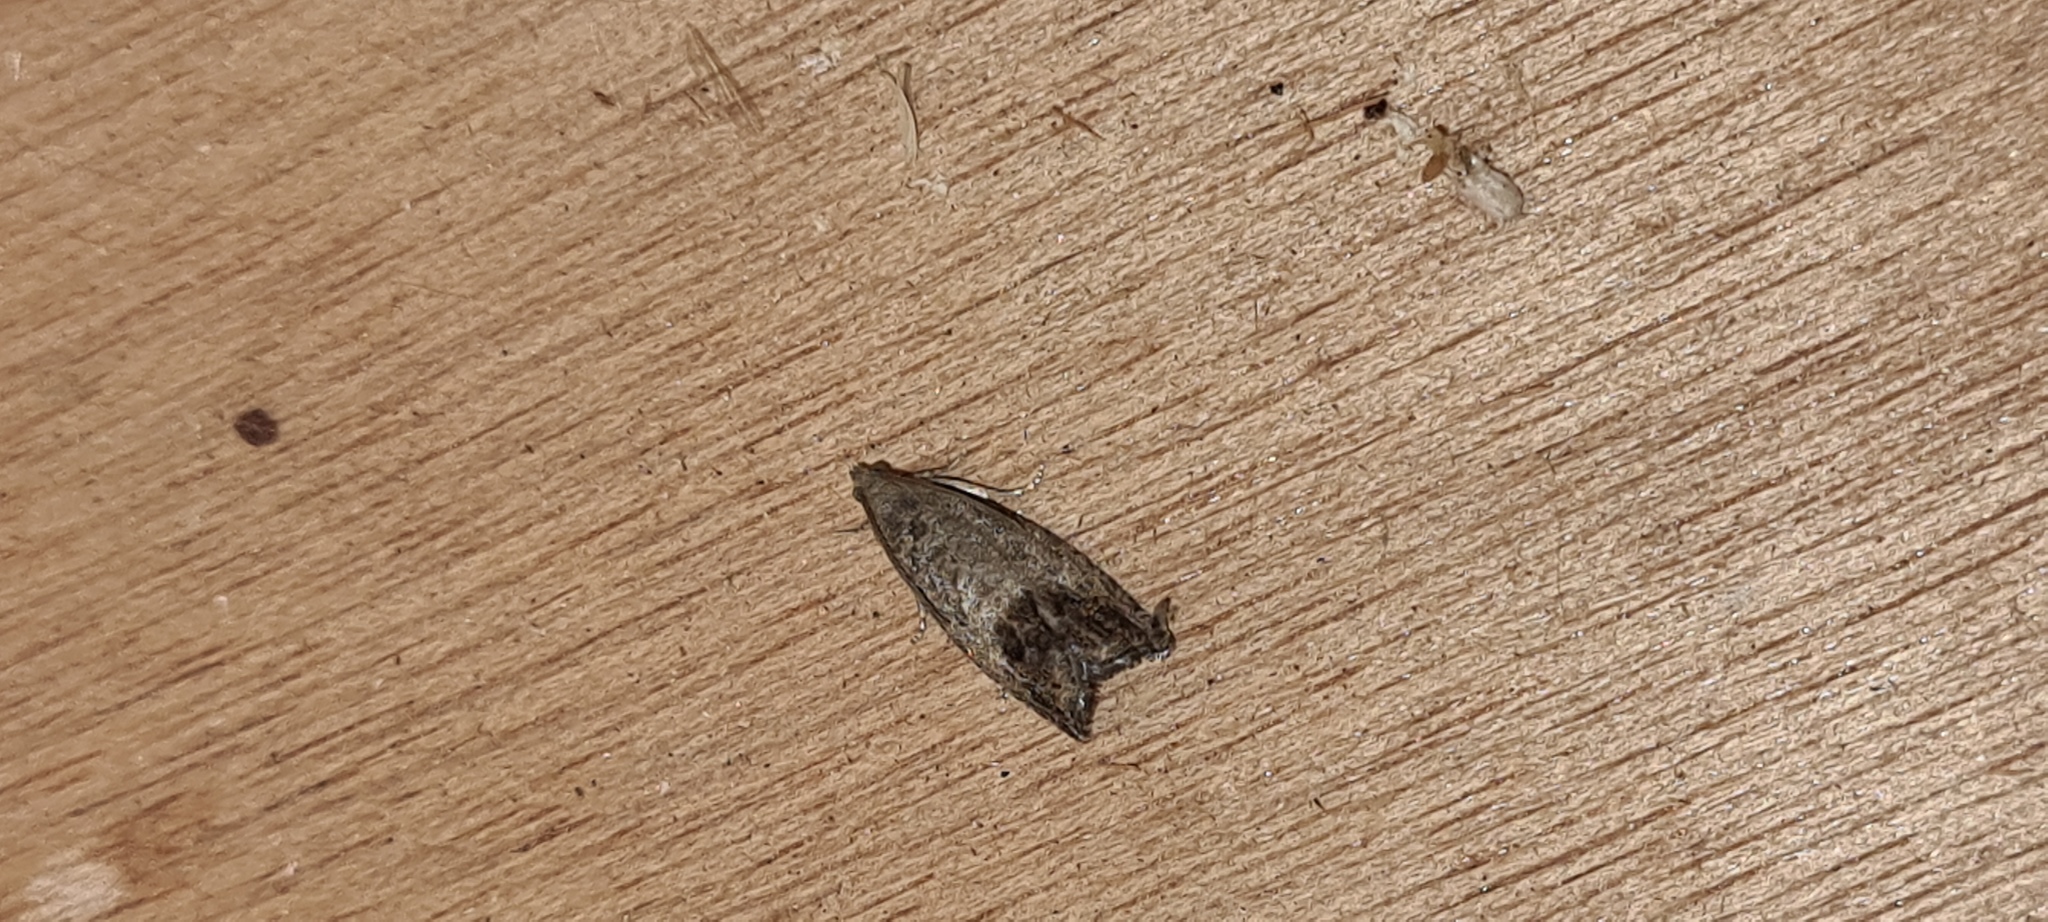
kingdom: Animalia
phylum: Arthropoda
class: Insecta
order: Lepidoptera
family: Tortricidae
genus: Cydia
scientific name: Cydia splendana
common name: De: kastanienwickler, eichenwickler es: oruga de la castaña fr: carpocapse des châtaignes it: cidia o tortrice tardiva delle castagne pt: bichado das castanhas gb: acorn moth, chestnut fruit tortrix
